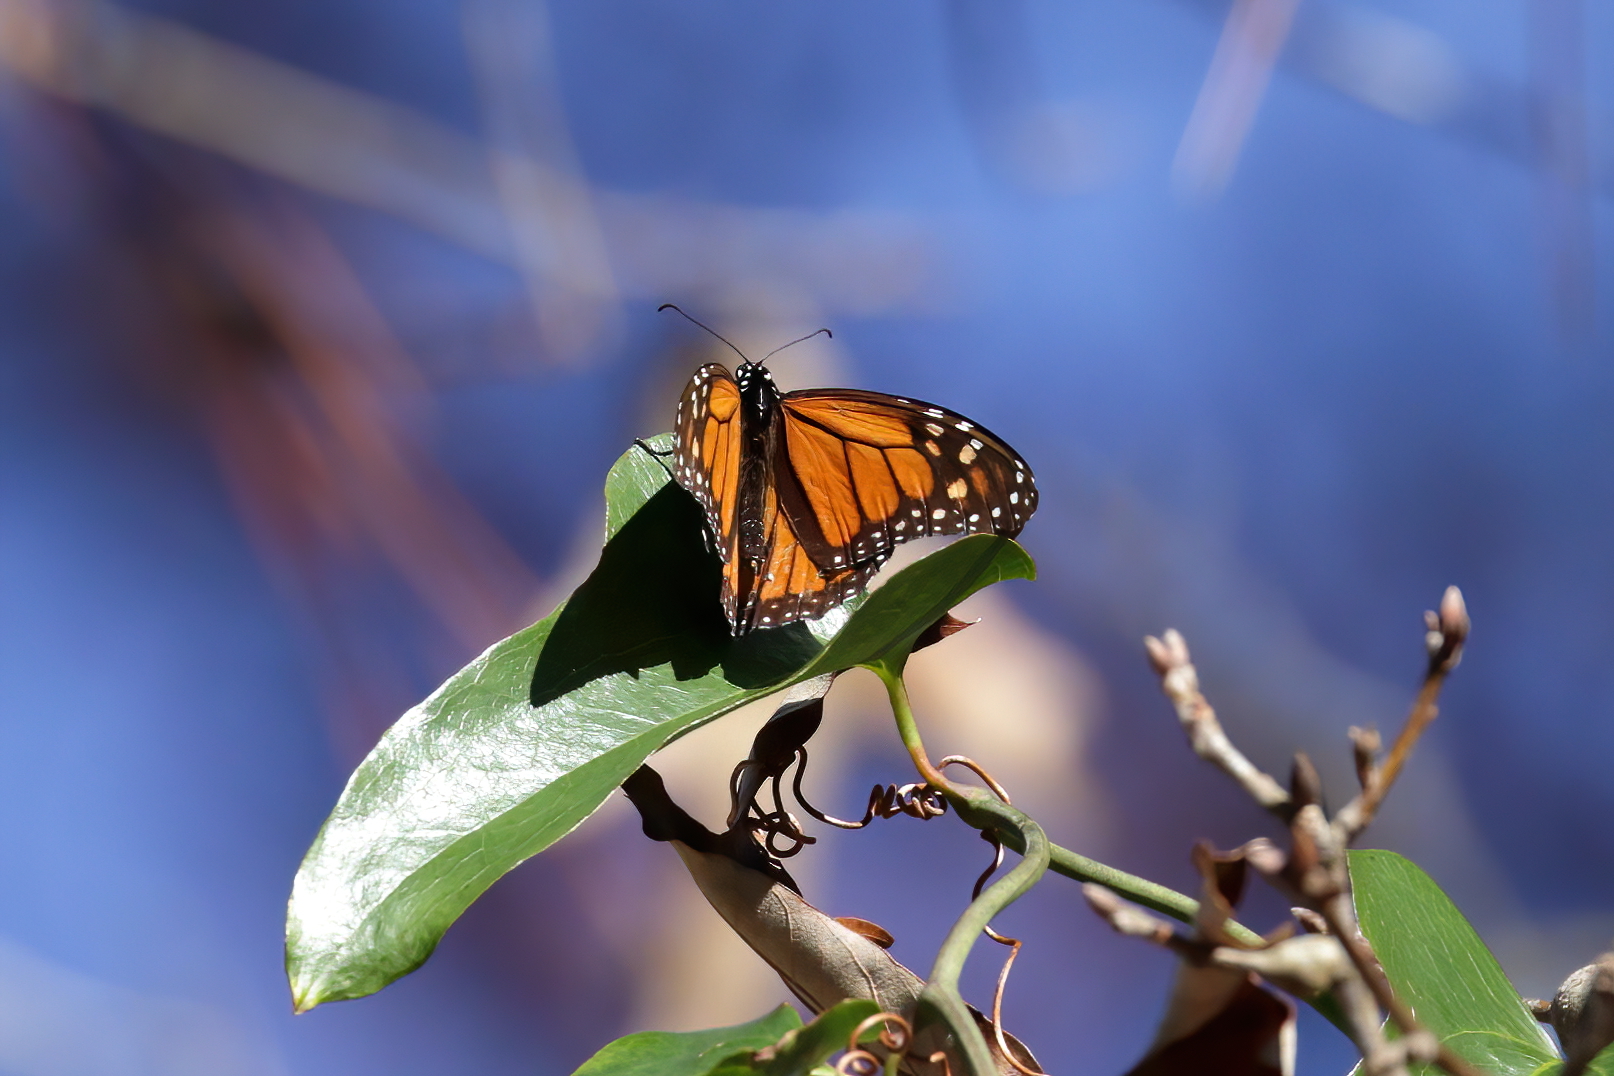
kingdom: Animalia
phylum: Arthropoda
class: Insecta
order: Lepidoptera
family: Nymphalidae
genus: Danaus
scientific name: Danaus plexippus
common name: Monarch
